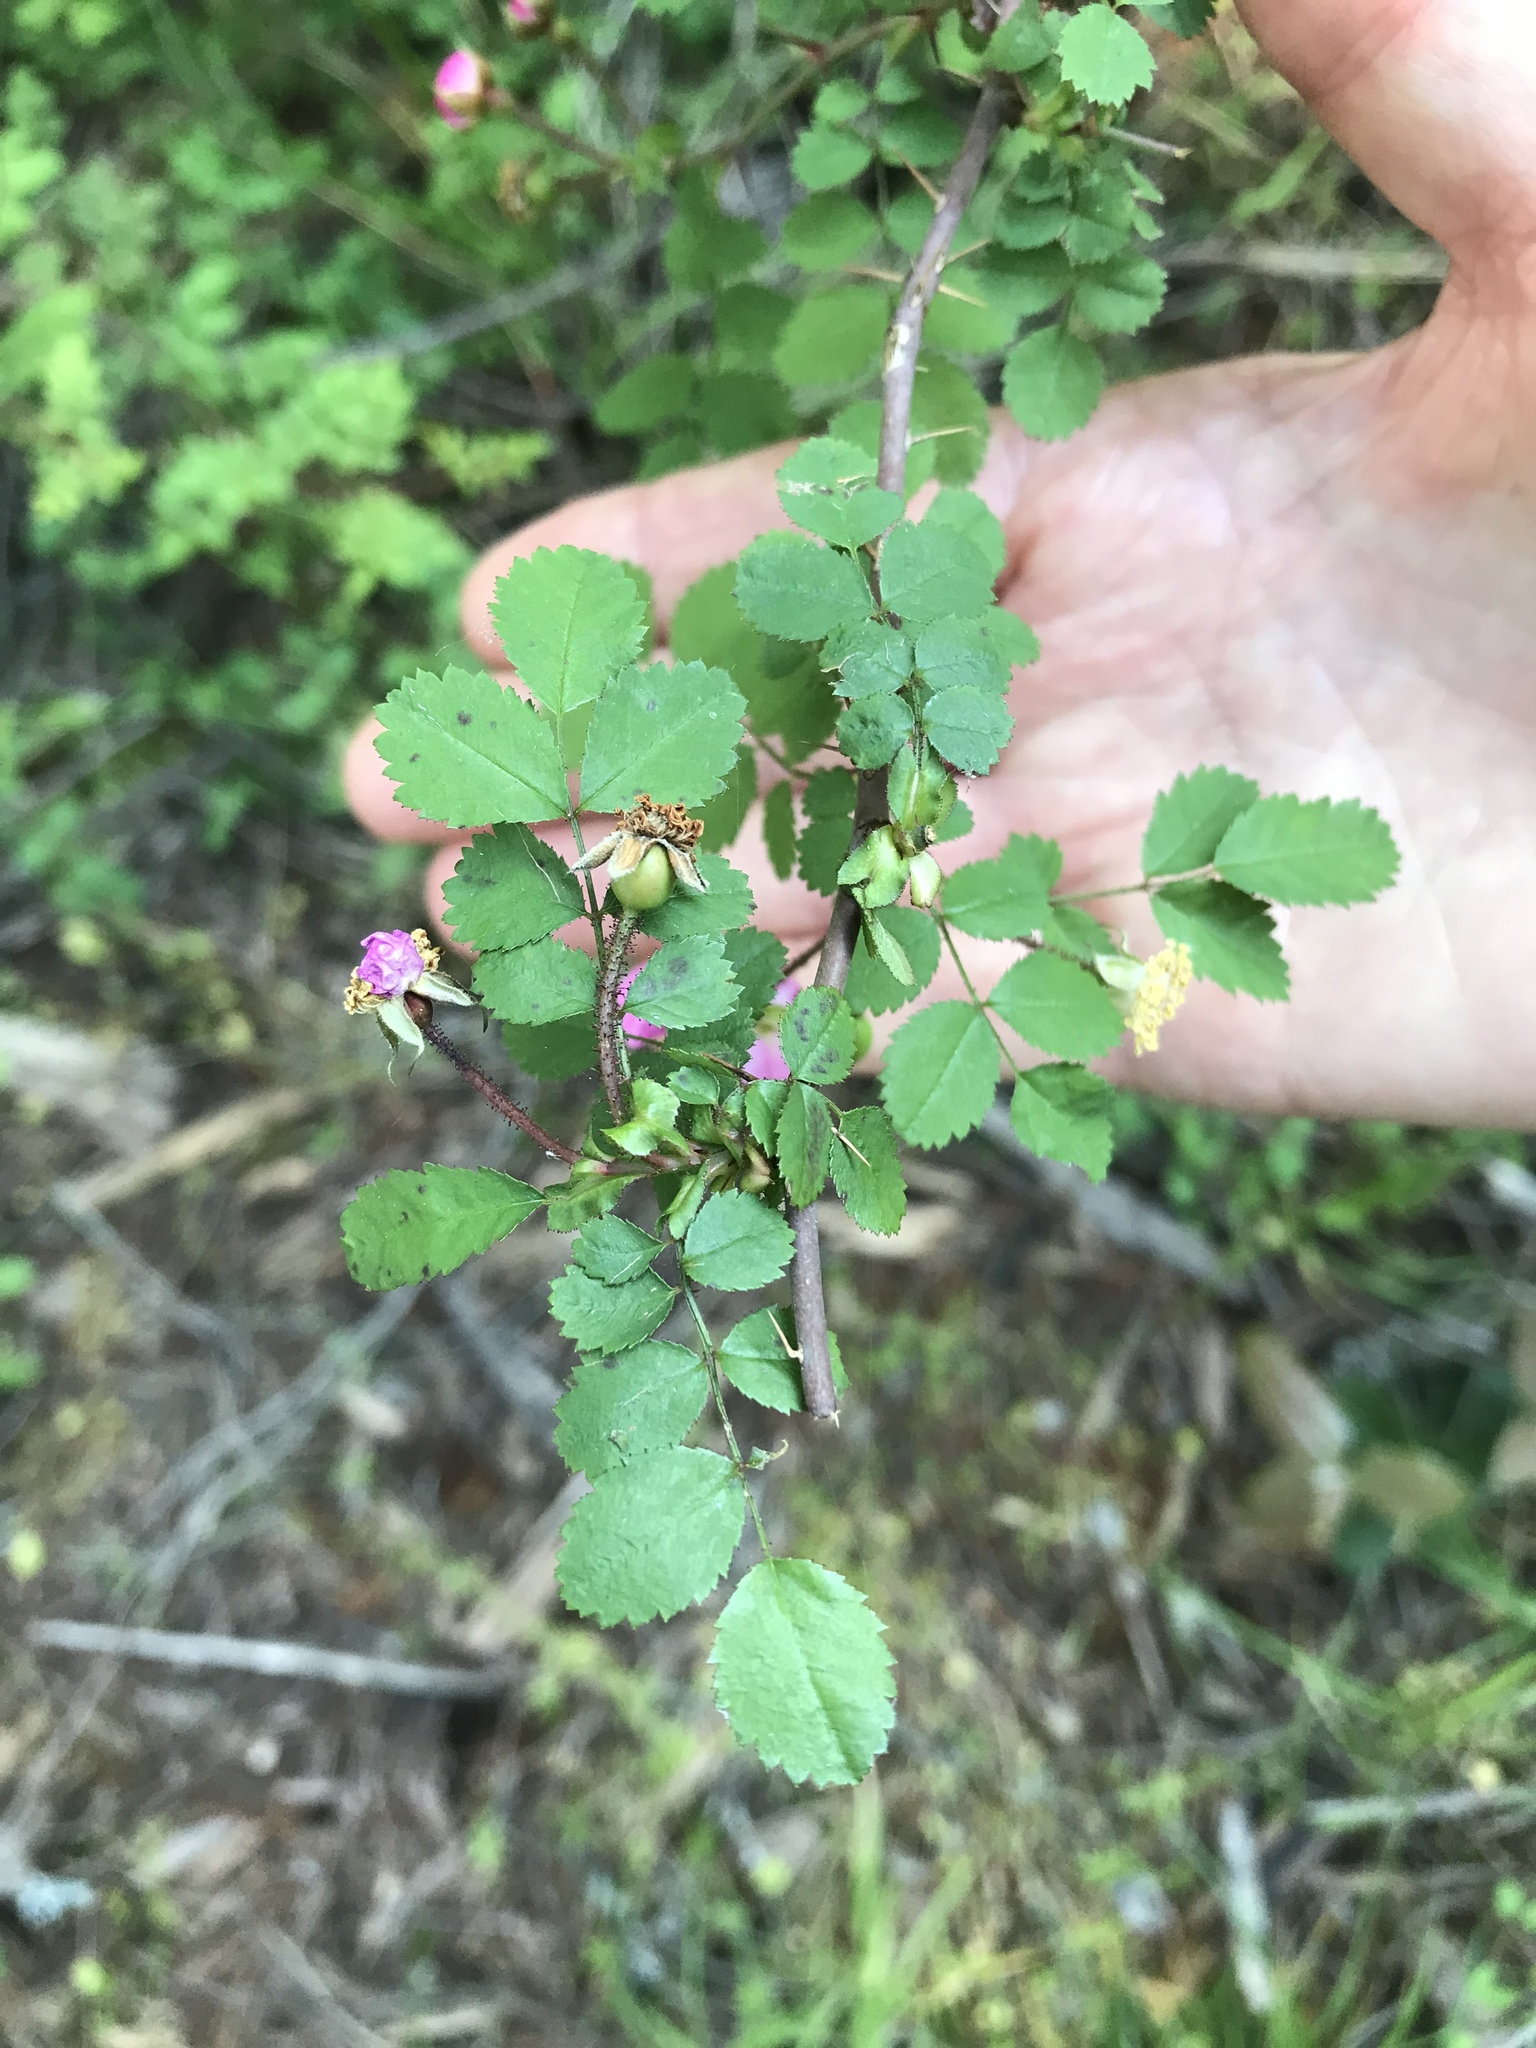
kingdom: Plantae
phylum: Tracheophyta
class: Magnoliopsida
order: Rosales
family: Rosaceae
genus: Rosa
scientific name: Rosa gymnocarpa
